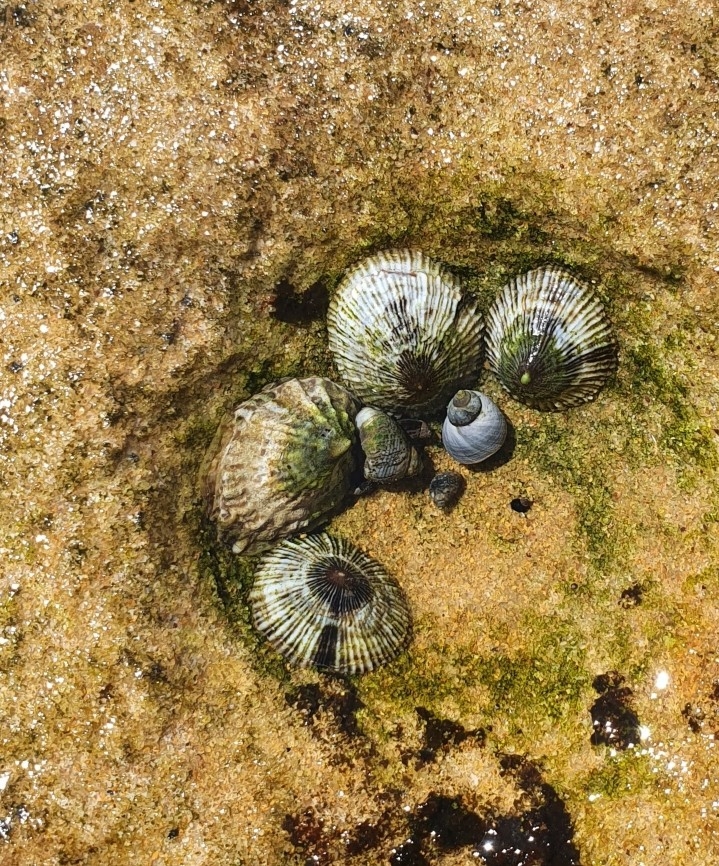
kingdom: Animalia
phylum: Mollusca
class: Gastropoda
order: Siphonariida
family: Siphonariidae
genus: Siphonaria
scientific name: Siphonaria funiculata
